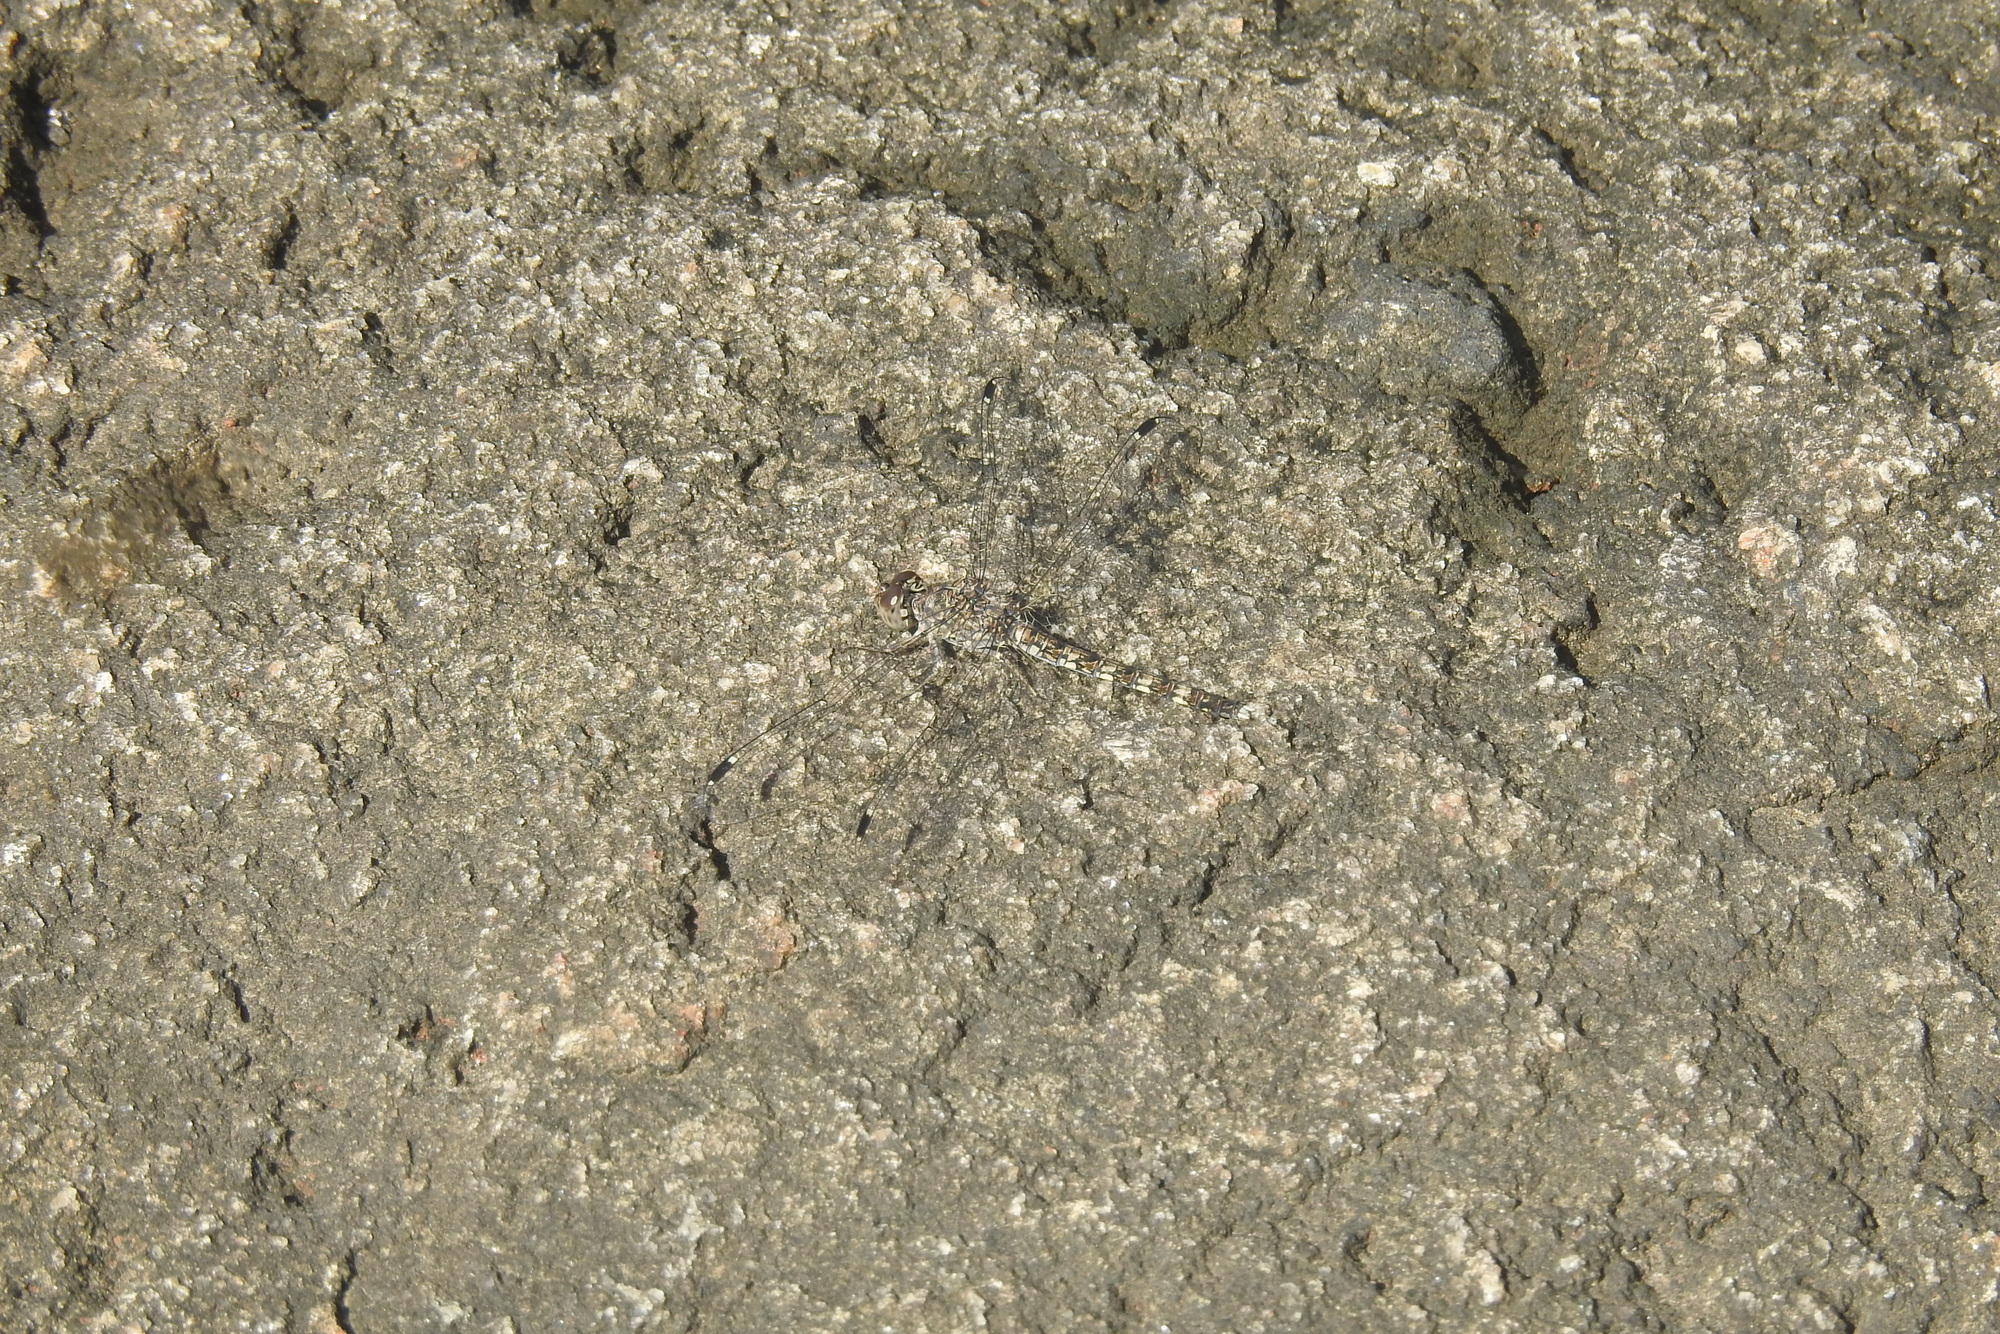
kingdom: Animalia
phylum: Arthropoda
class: Insecta
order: Odonata
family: Libellulidae
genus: Bradinopyga
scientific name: Bradinopyga geminata
